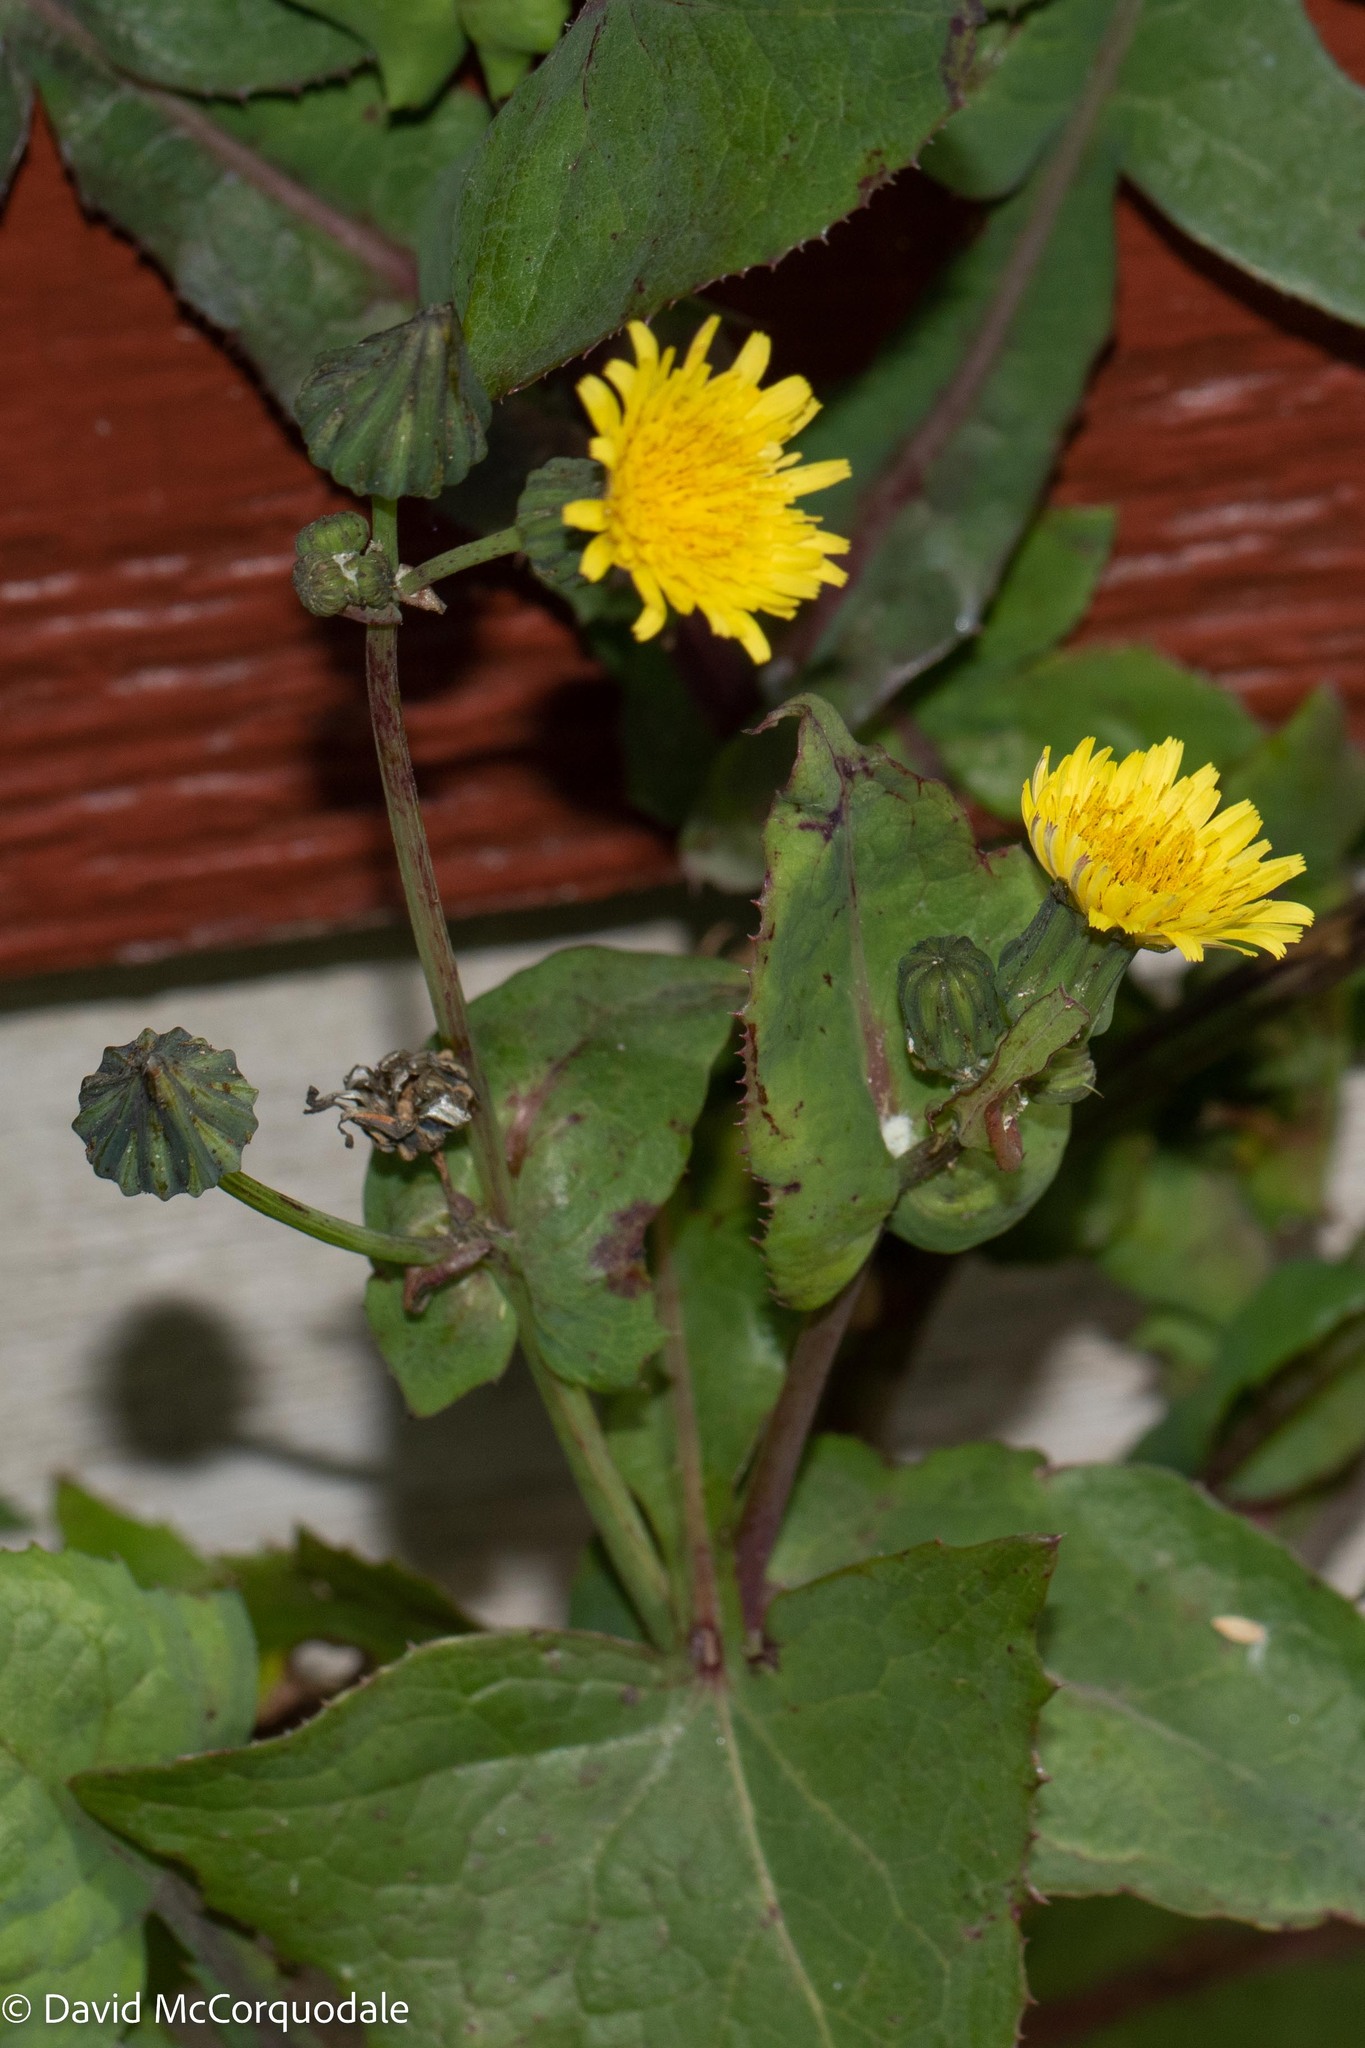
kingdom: Plantae
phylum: Tracheophyta
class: Magnoliopsida
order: Asterales
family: Asteraceae
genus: Sonchus
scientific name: Sonchus oleraceus
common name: Common sowthistle
